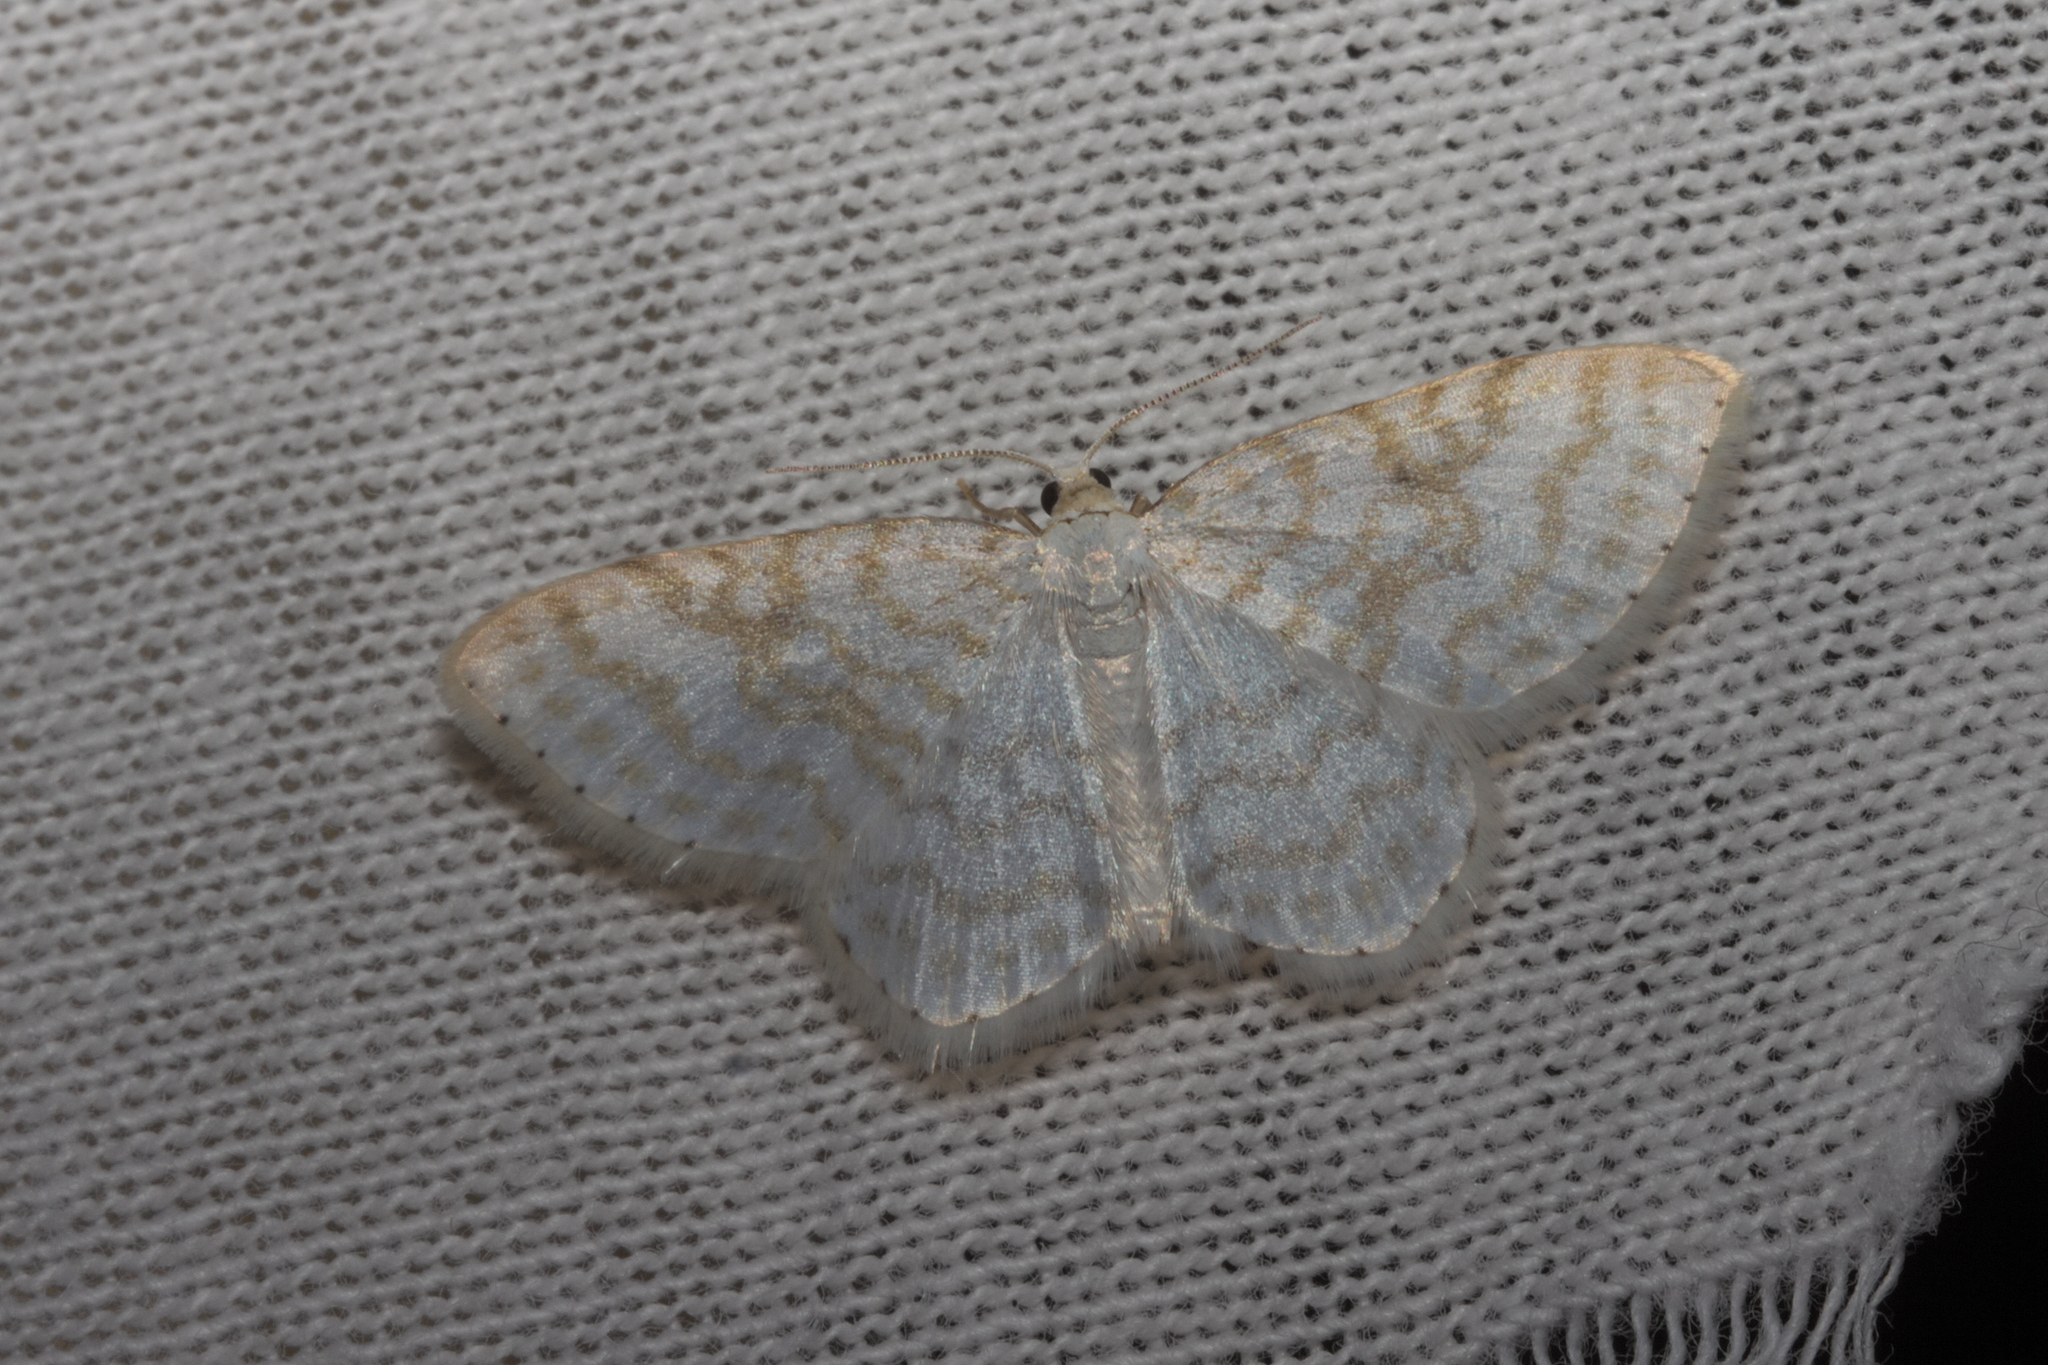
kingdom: Animalia
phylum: Arthropoda
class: Insecta
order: Lepidoptera
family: Geometridae
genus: Asthena
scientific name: Asthena albulata
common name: Small white wave
